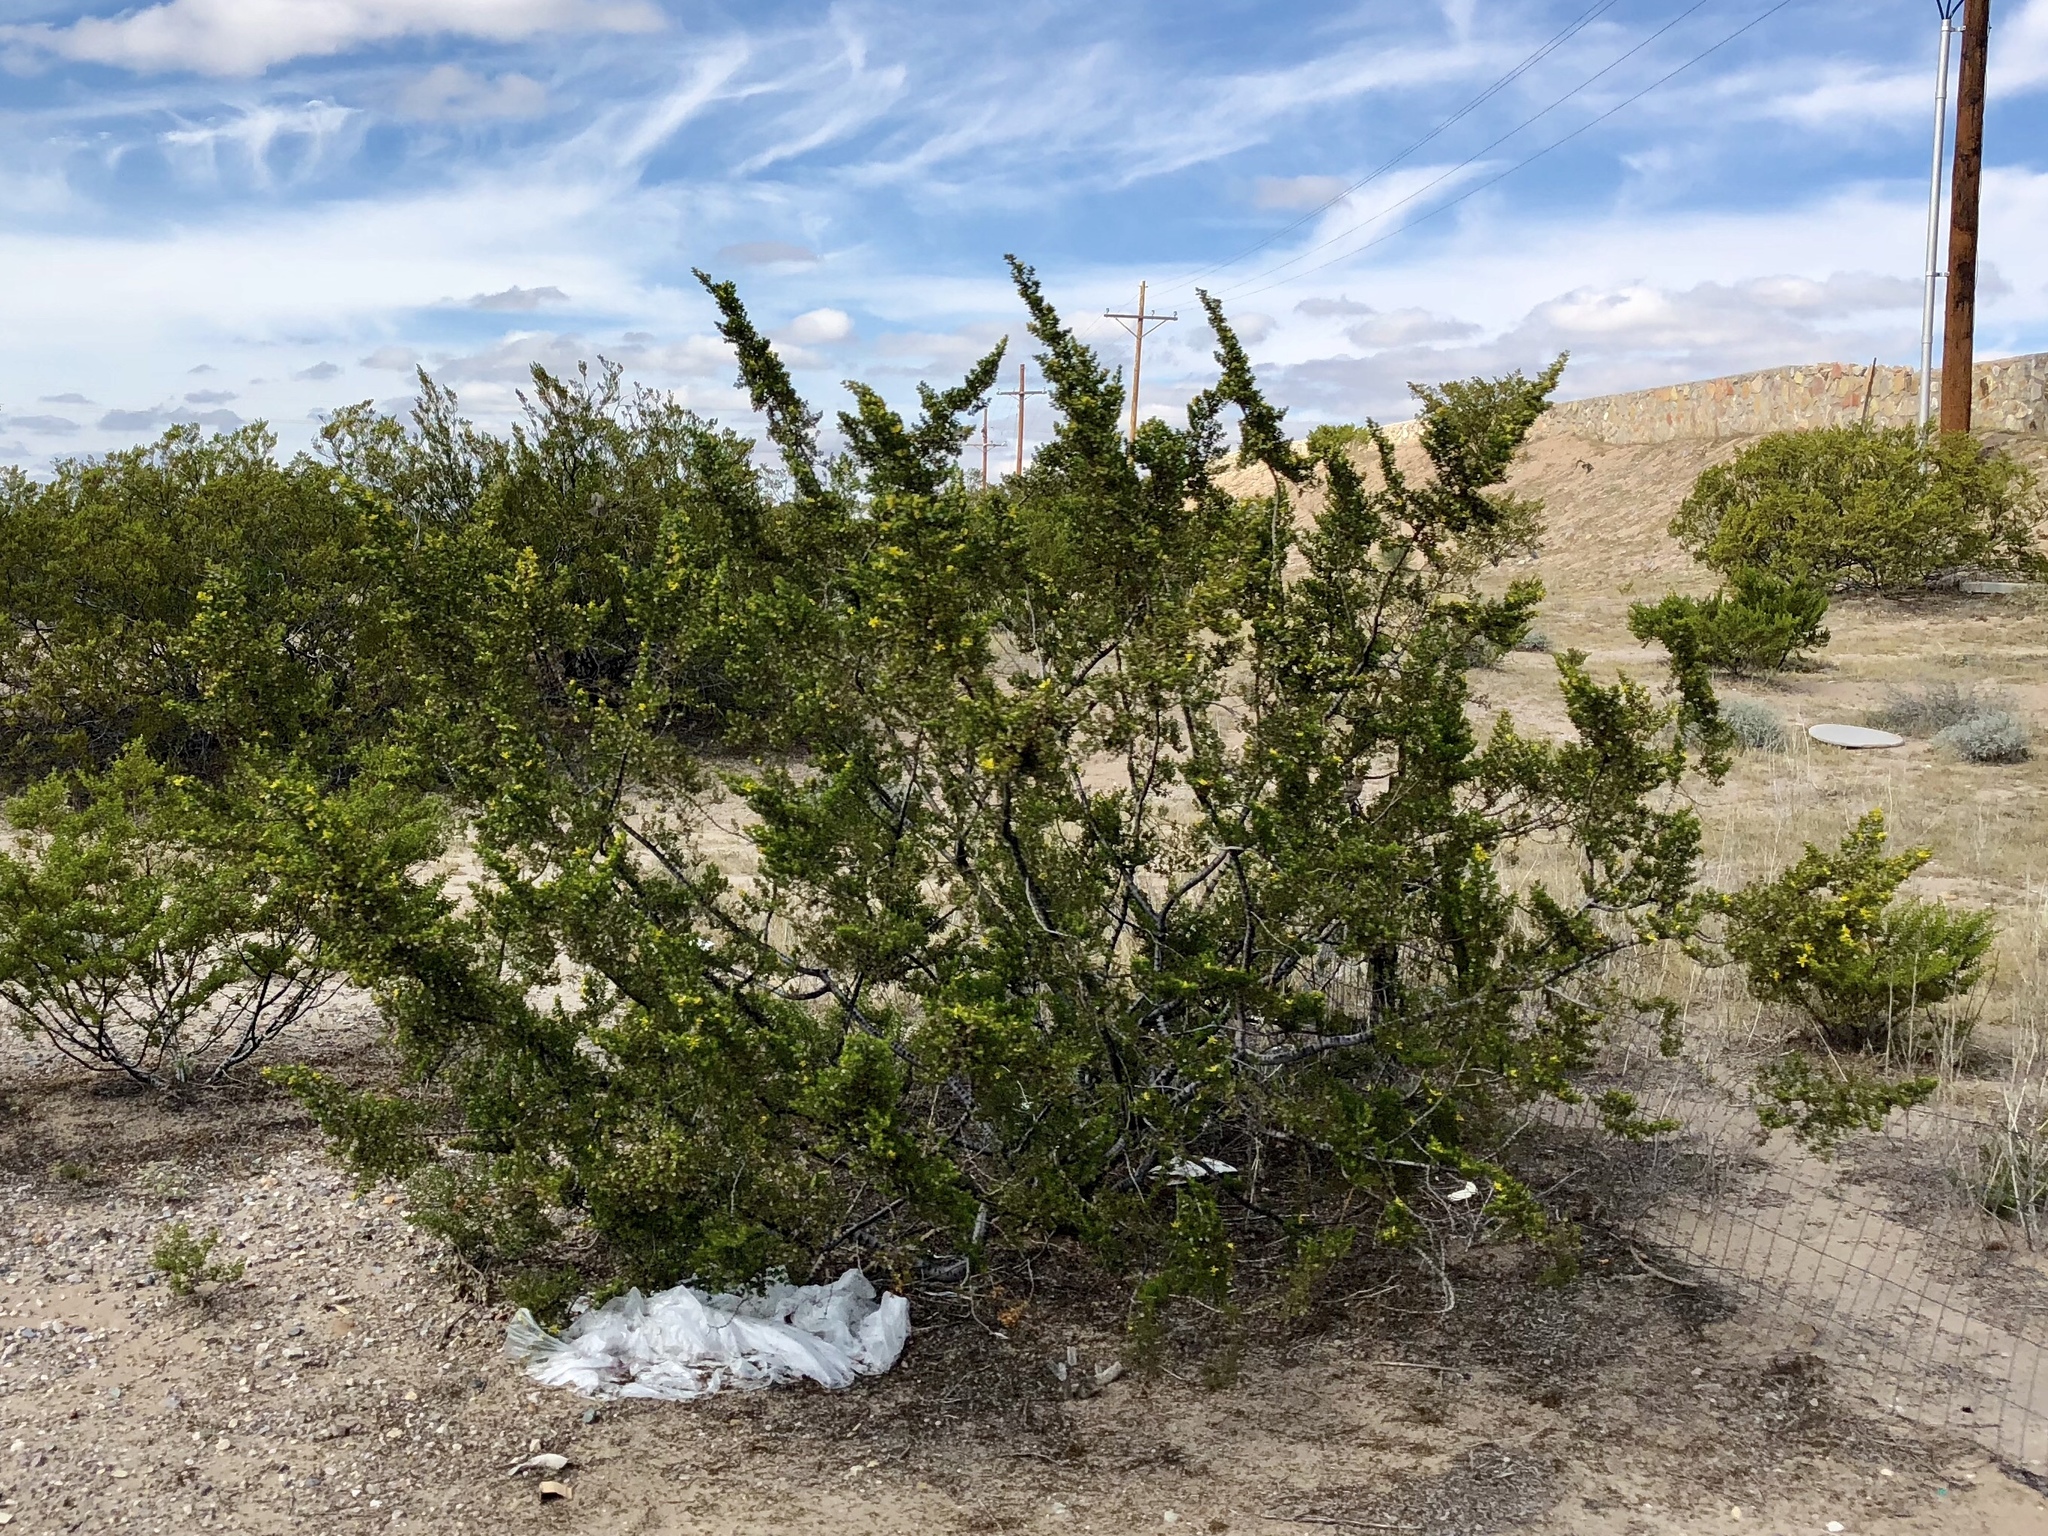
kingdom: Plantae
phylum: Tracheophyta
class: Magnoliopsida
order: Zygophyllales
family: Zygophyllaceae
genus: Larrea
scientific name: Larrea tridentata
